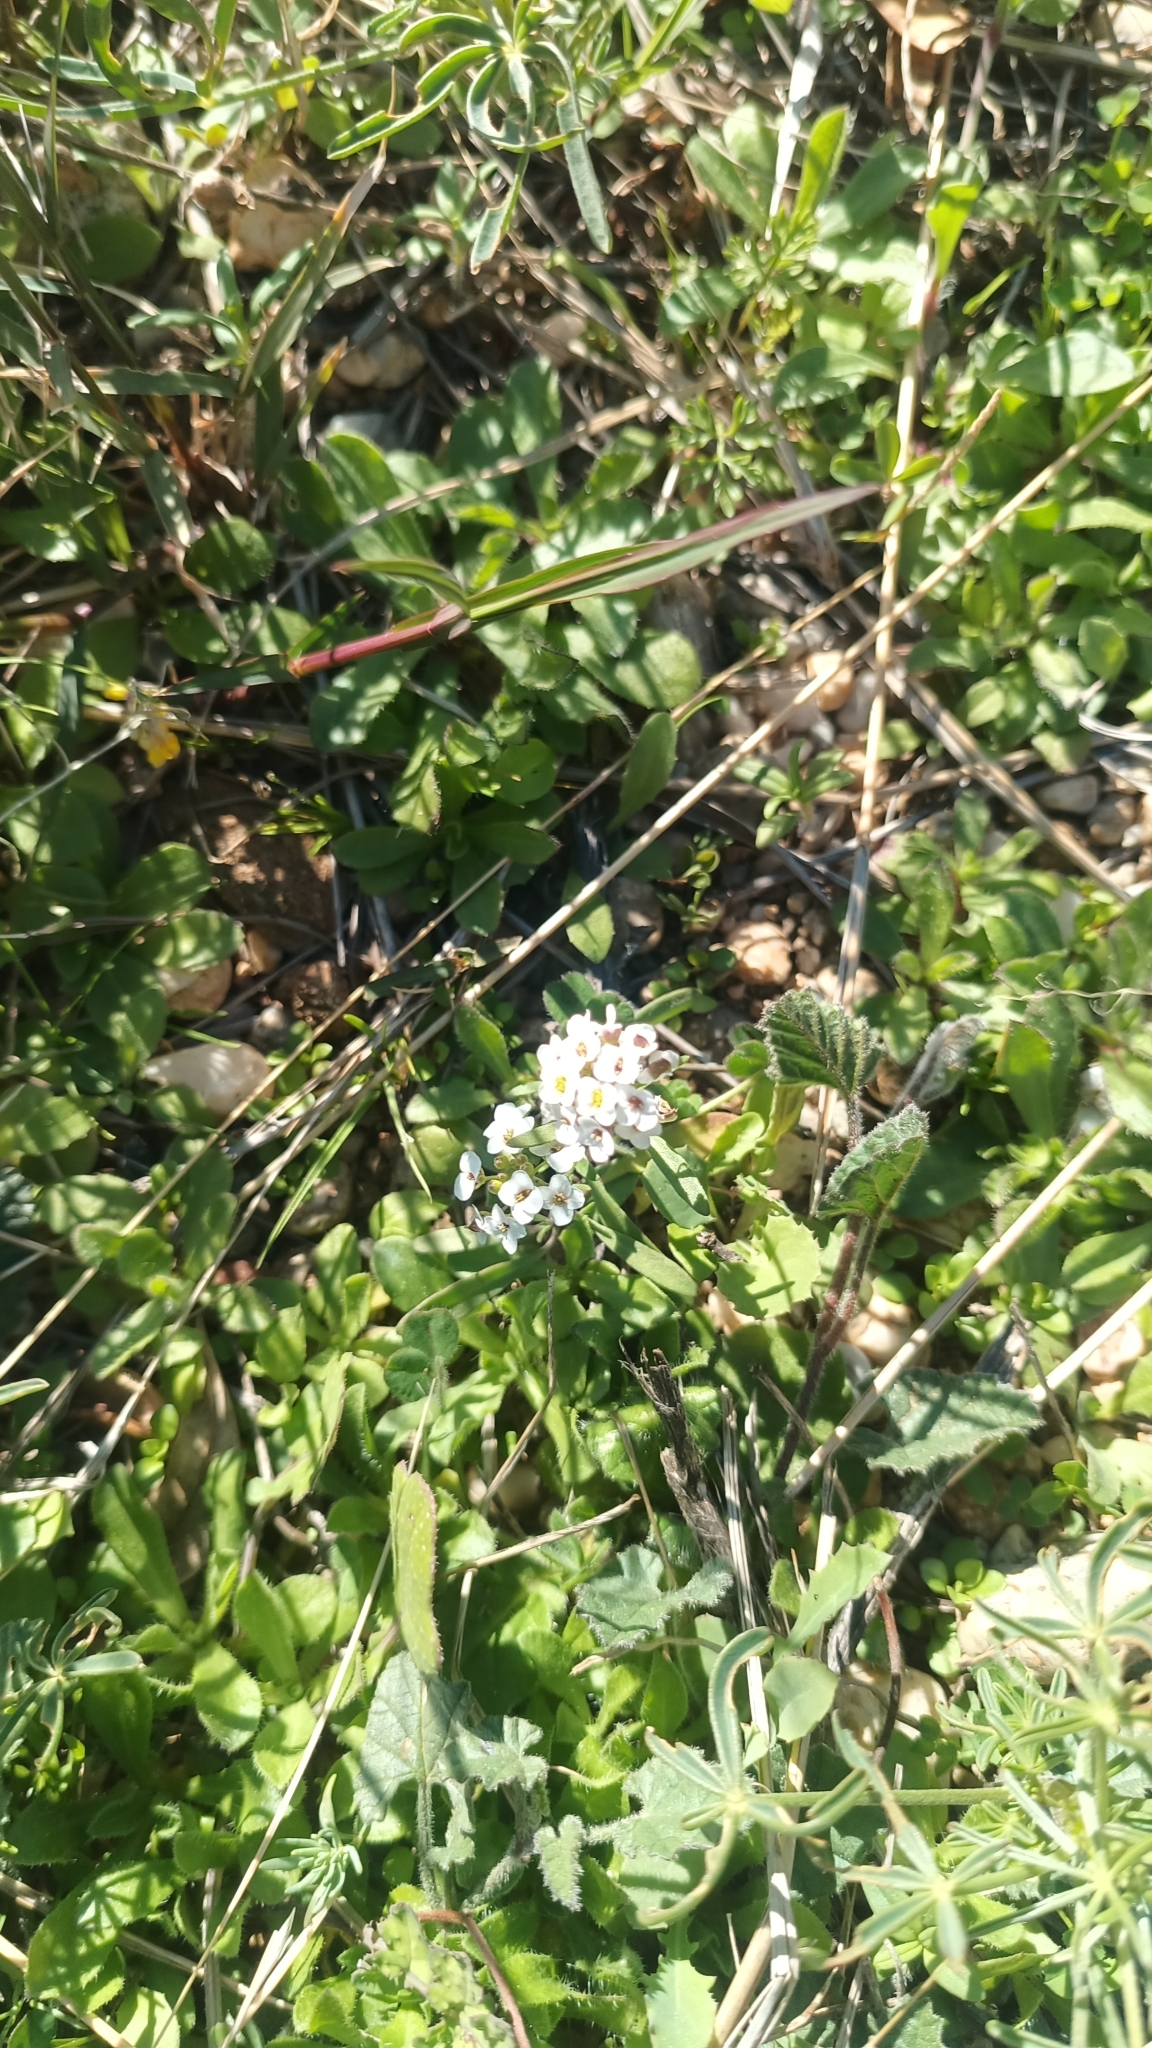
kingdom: Plantae
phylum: Tracheophyta
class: Magnoliopsida
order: Brassicales
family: Brassicaceae
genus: Lobularia
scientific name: Lobularia maritima
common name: Sweet alison
